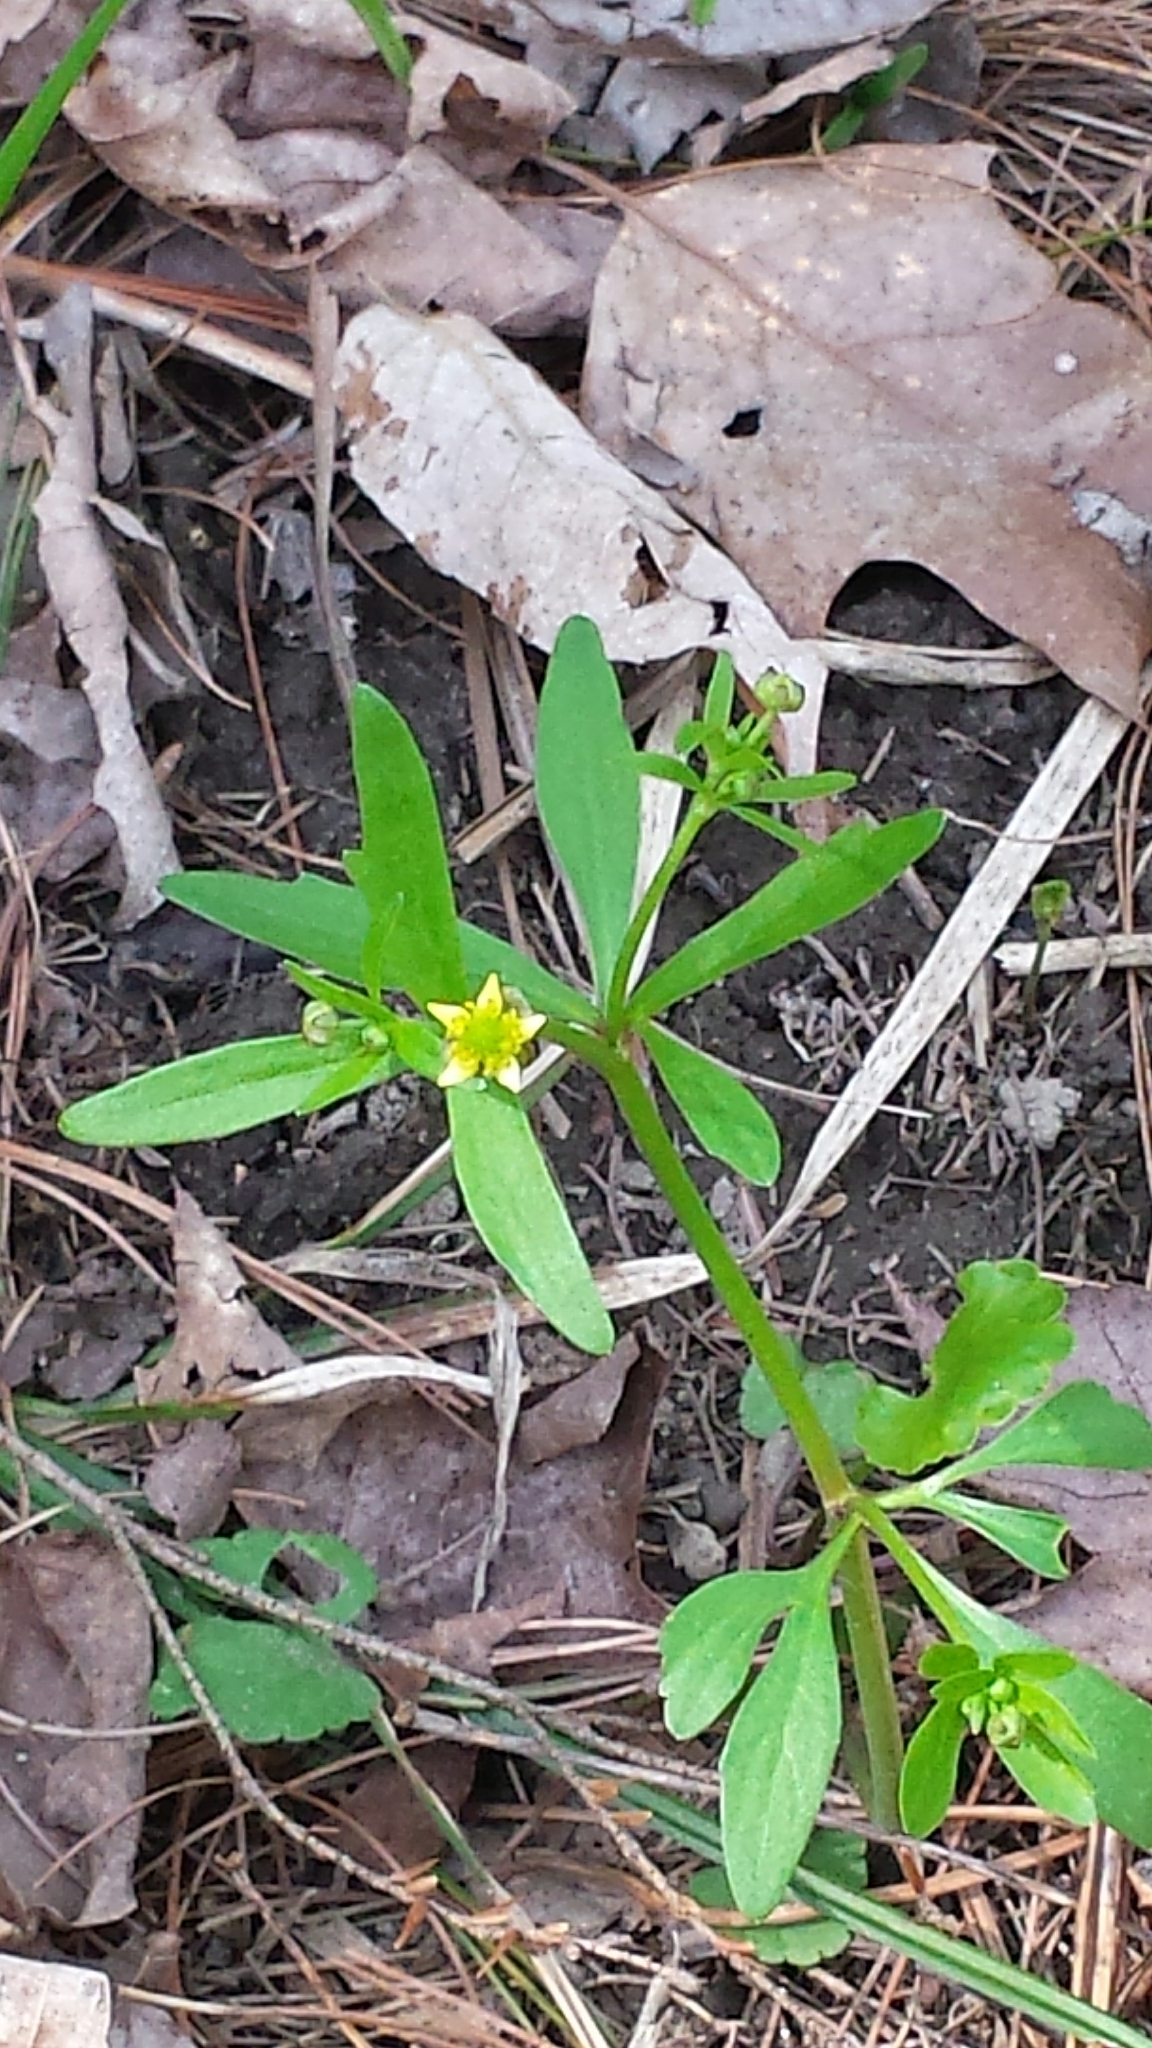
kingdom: Plantae
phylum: Tracheophyta
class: Magnoliopsida
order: Ranunculales
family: Ranunculaceae
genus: Ranunculus
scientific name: Ranunculus abortivus
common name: Early wood buttercup
